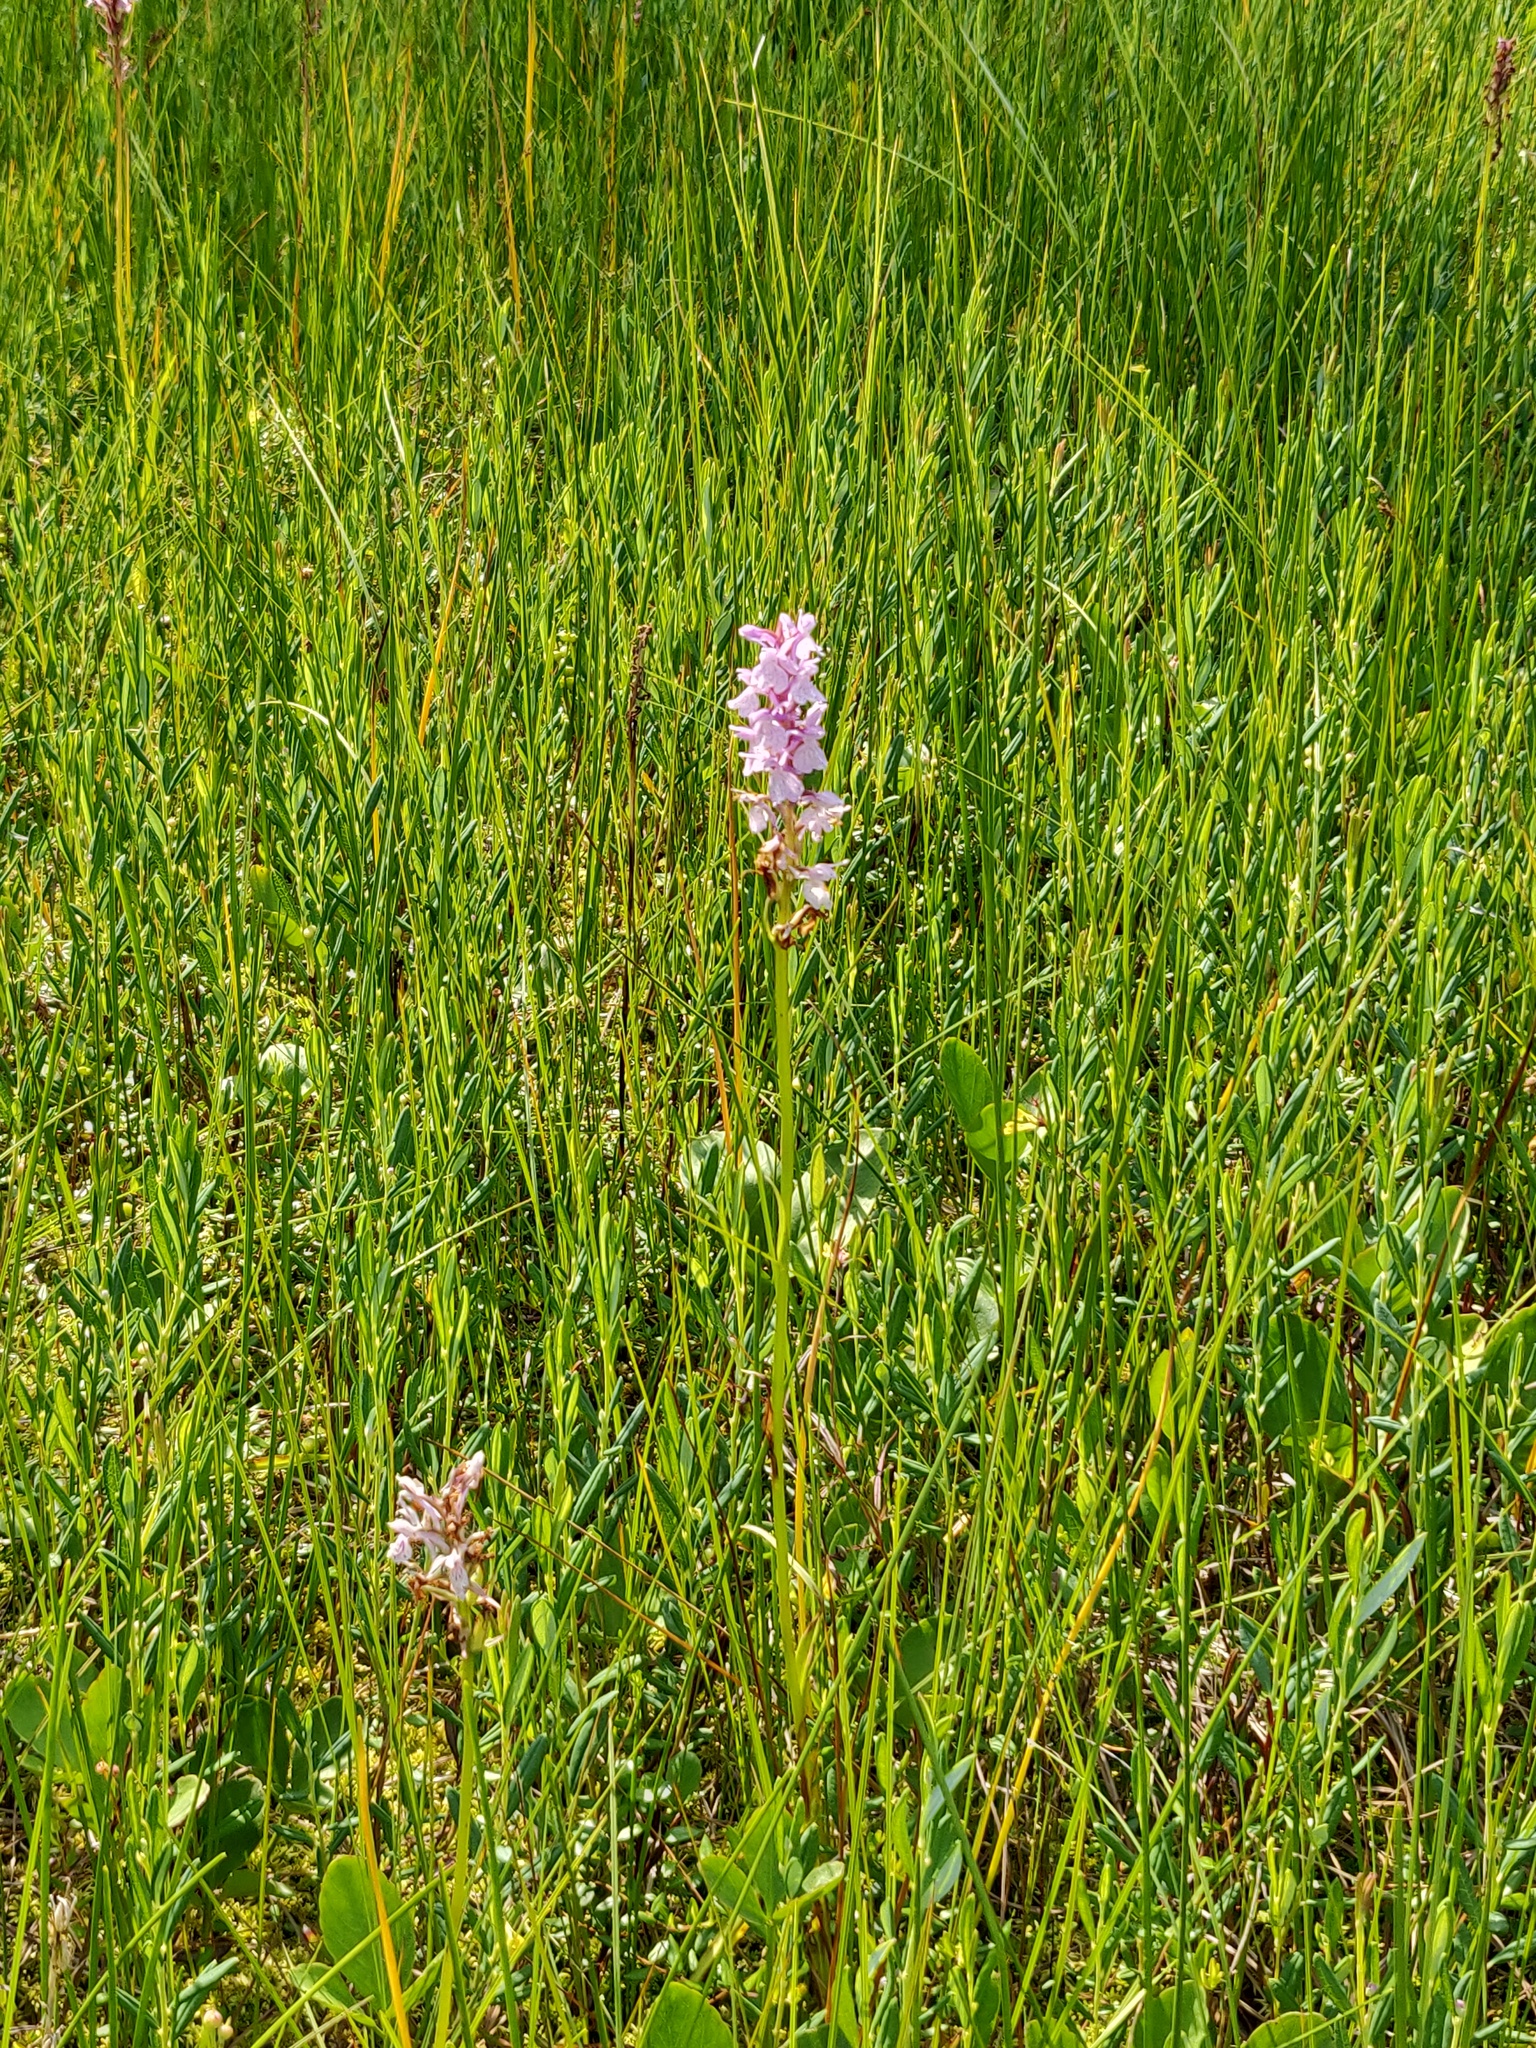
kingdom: Plantae
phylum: Tracheophyta
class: Liliopsida
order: Asparagales
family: Orchidaceae
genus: Dactylorhiza
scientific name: Dactylorhiza maculata
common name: Heath spotted-orchid
